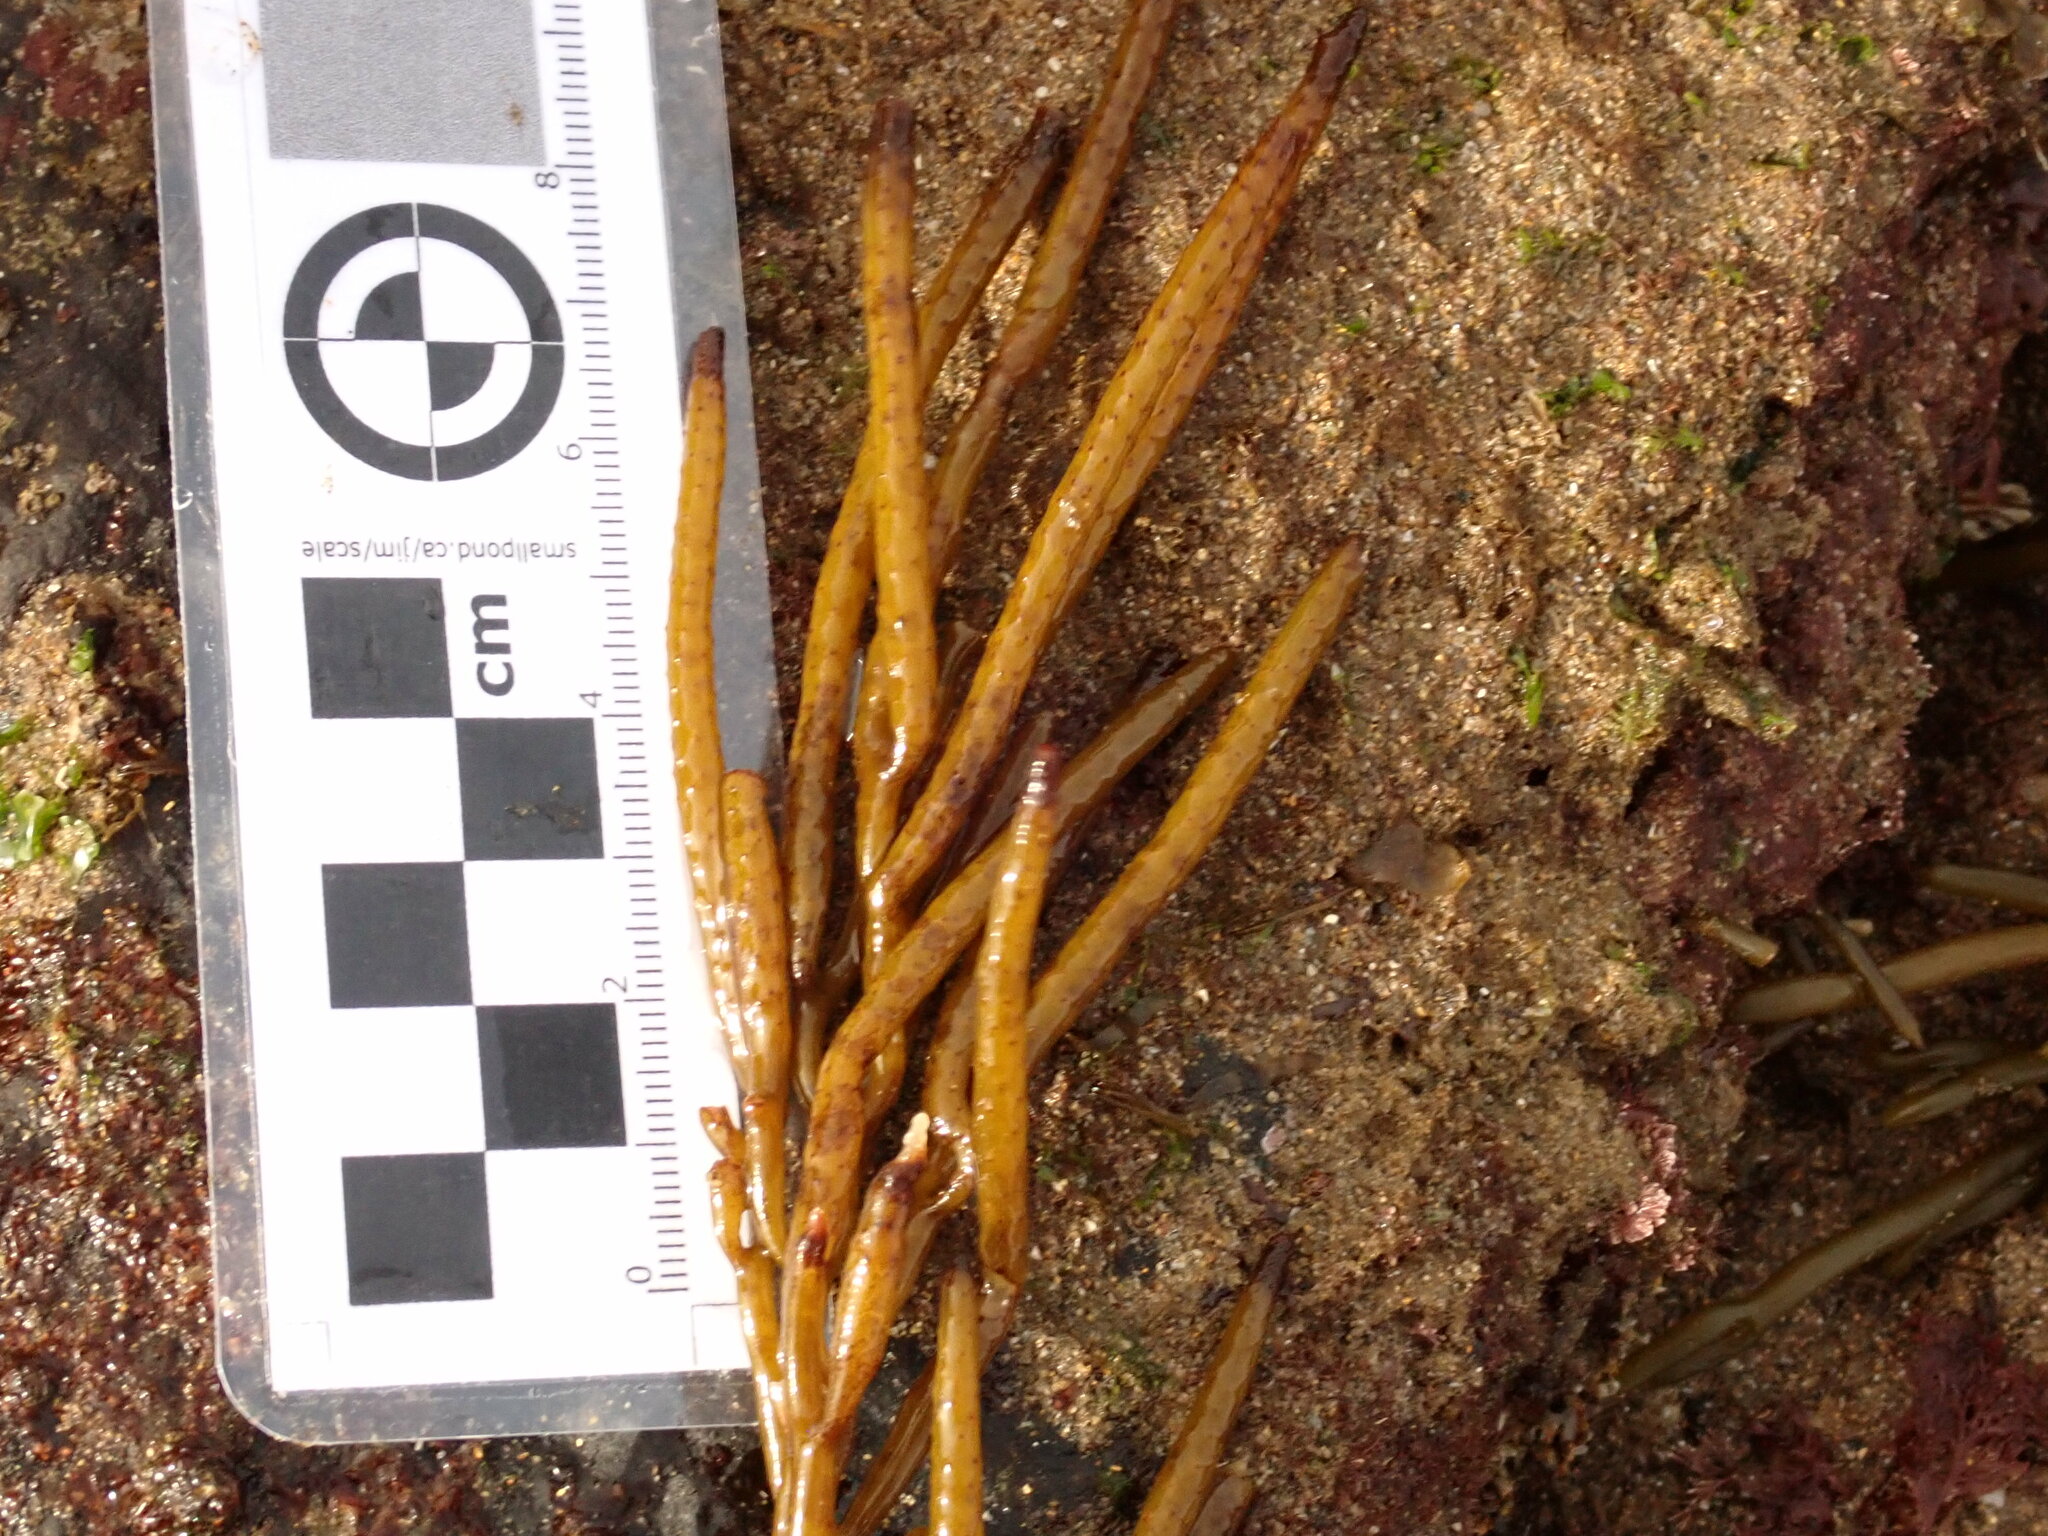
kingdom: Chromista
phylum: Ochrophyta
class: Phaeophyceae
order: Fucales
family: Sargassaceae
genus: Bifurcaria
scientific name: Bifurcaria bifurcata
